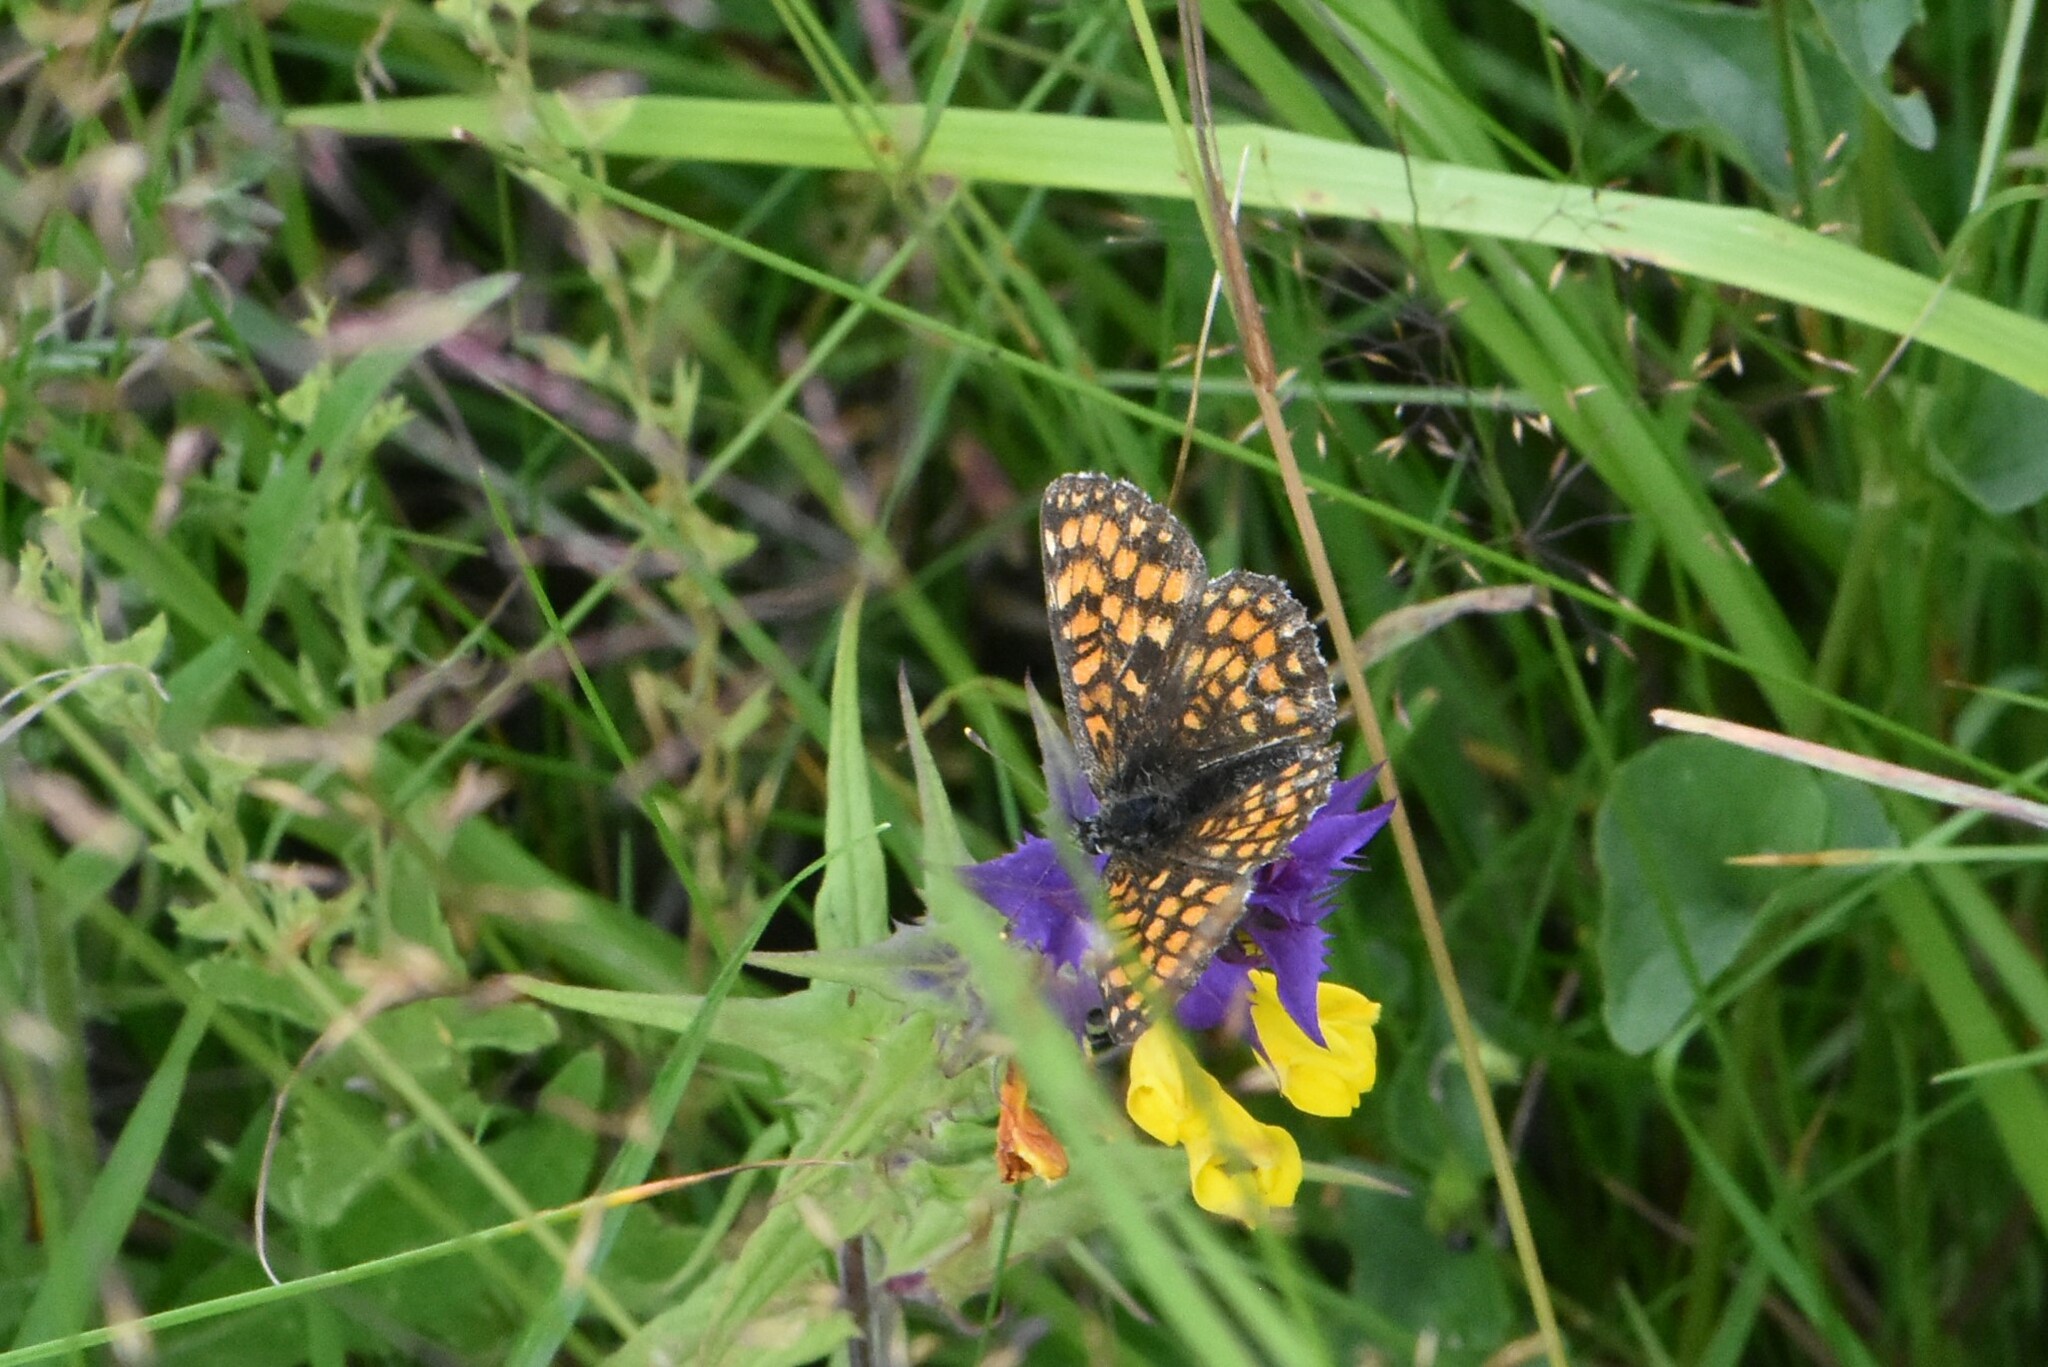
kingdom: Animalia
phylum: Arthropoda
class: Insecta
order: Lepidoptera
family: Nymphalidae
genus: Melitaea
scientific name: Melitaea athalia
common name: Heath fritillary
